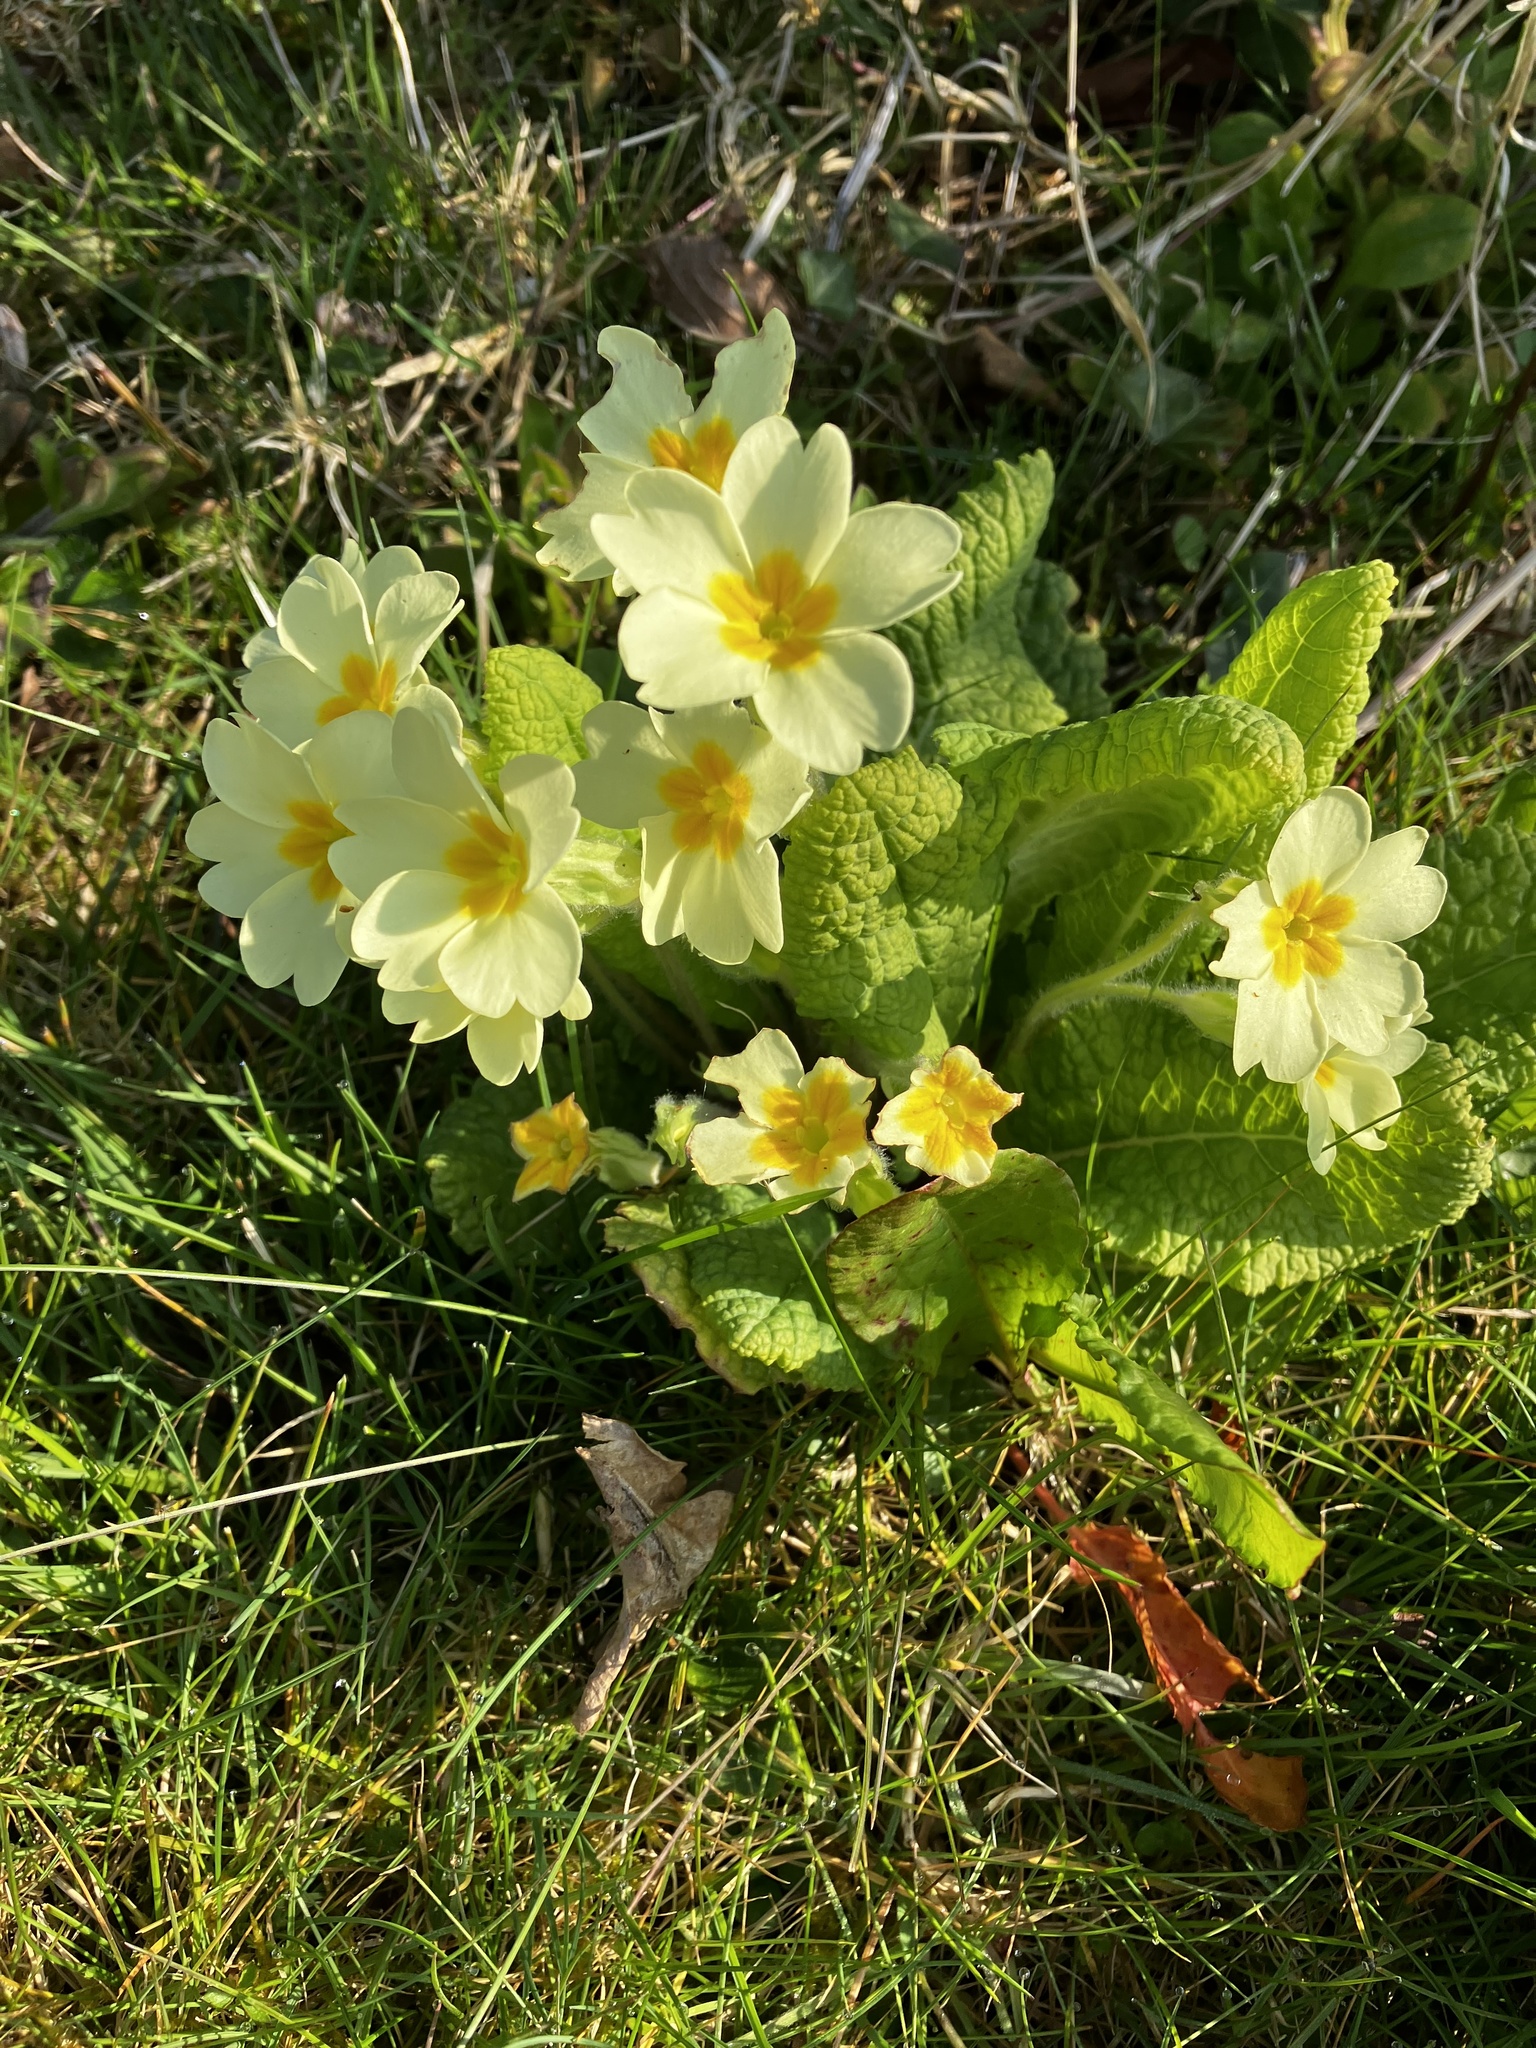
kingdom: Plantae
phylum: Tracheophyta
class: Magnoliopsida
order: Ericales
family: Primulaceae
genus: Primula
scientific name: Primula vulgaris
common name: Primrose
